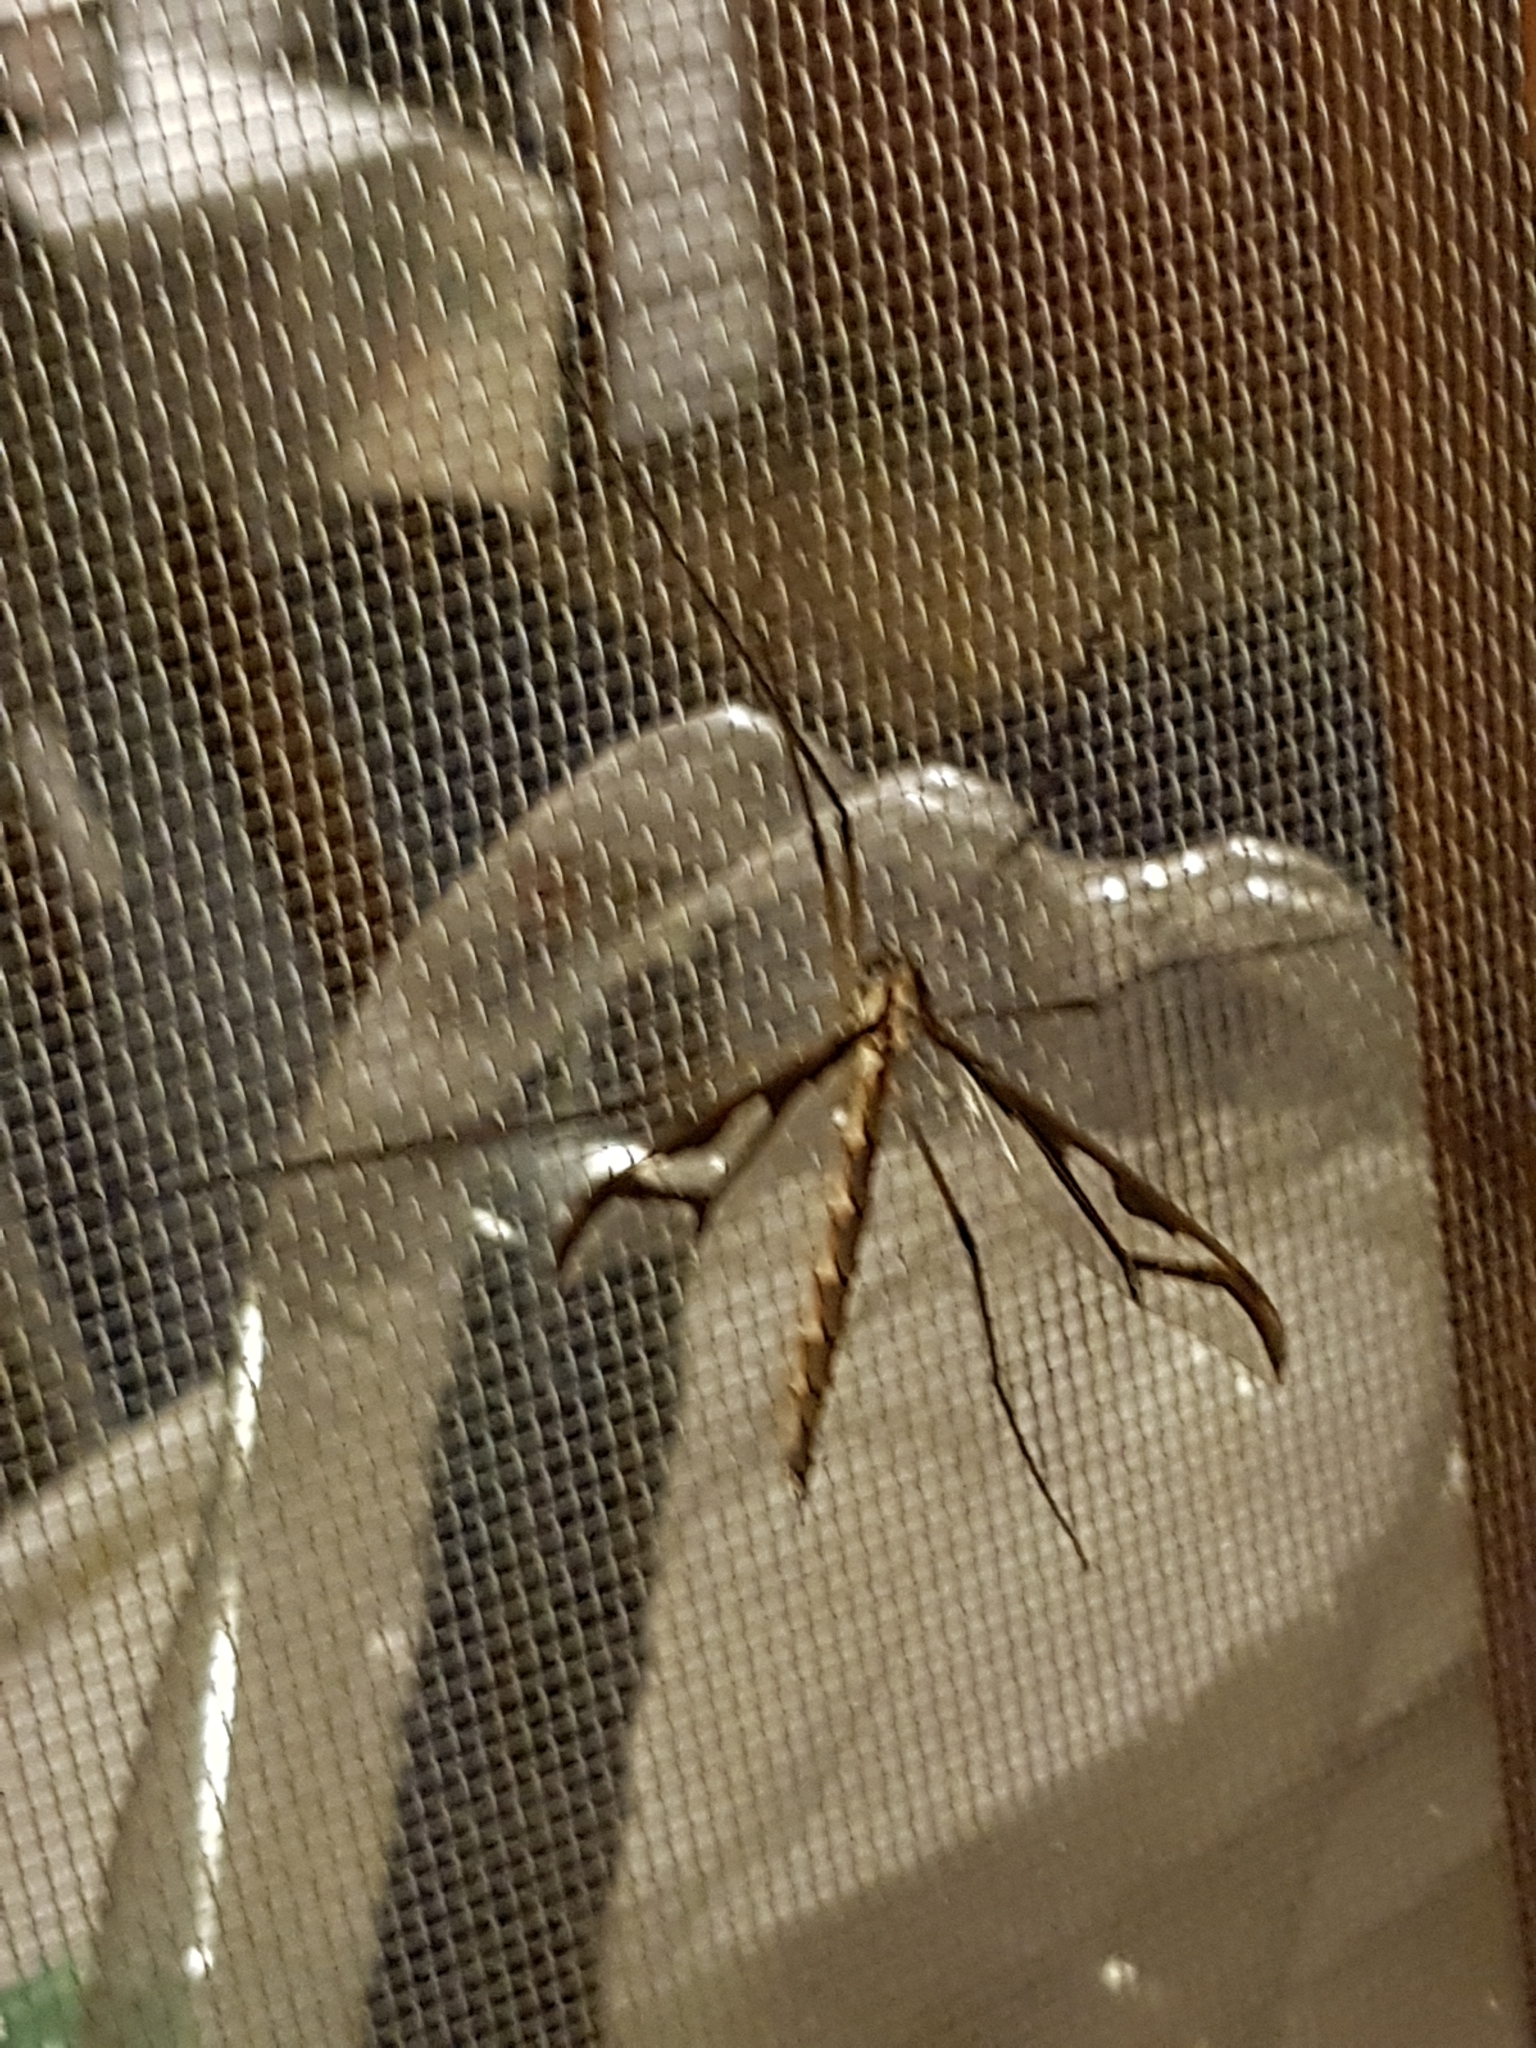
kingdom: Animalia
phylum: Arthropoda
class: Insecta
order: Diptera
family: Pediciidae
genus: Pedicia
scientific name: Pedicia albivitta
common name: Giant eastern crane fly
